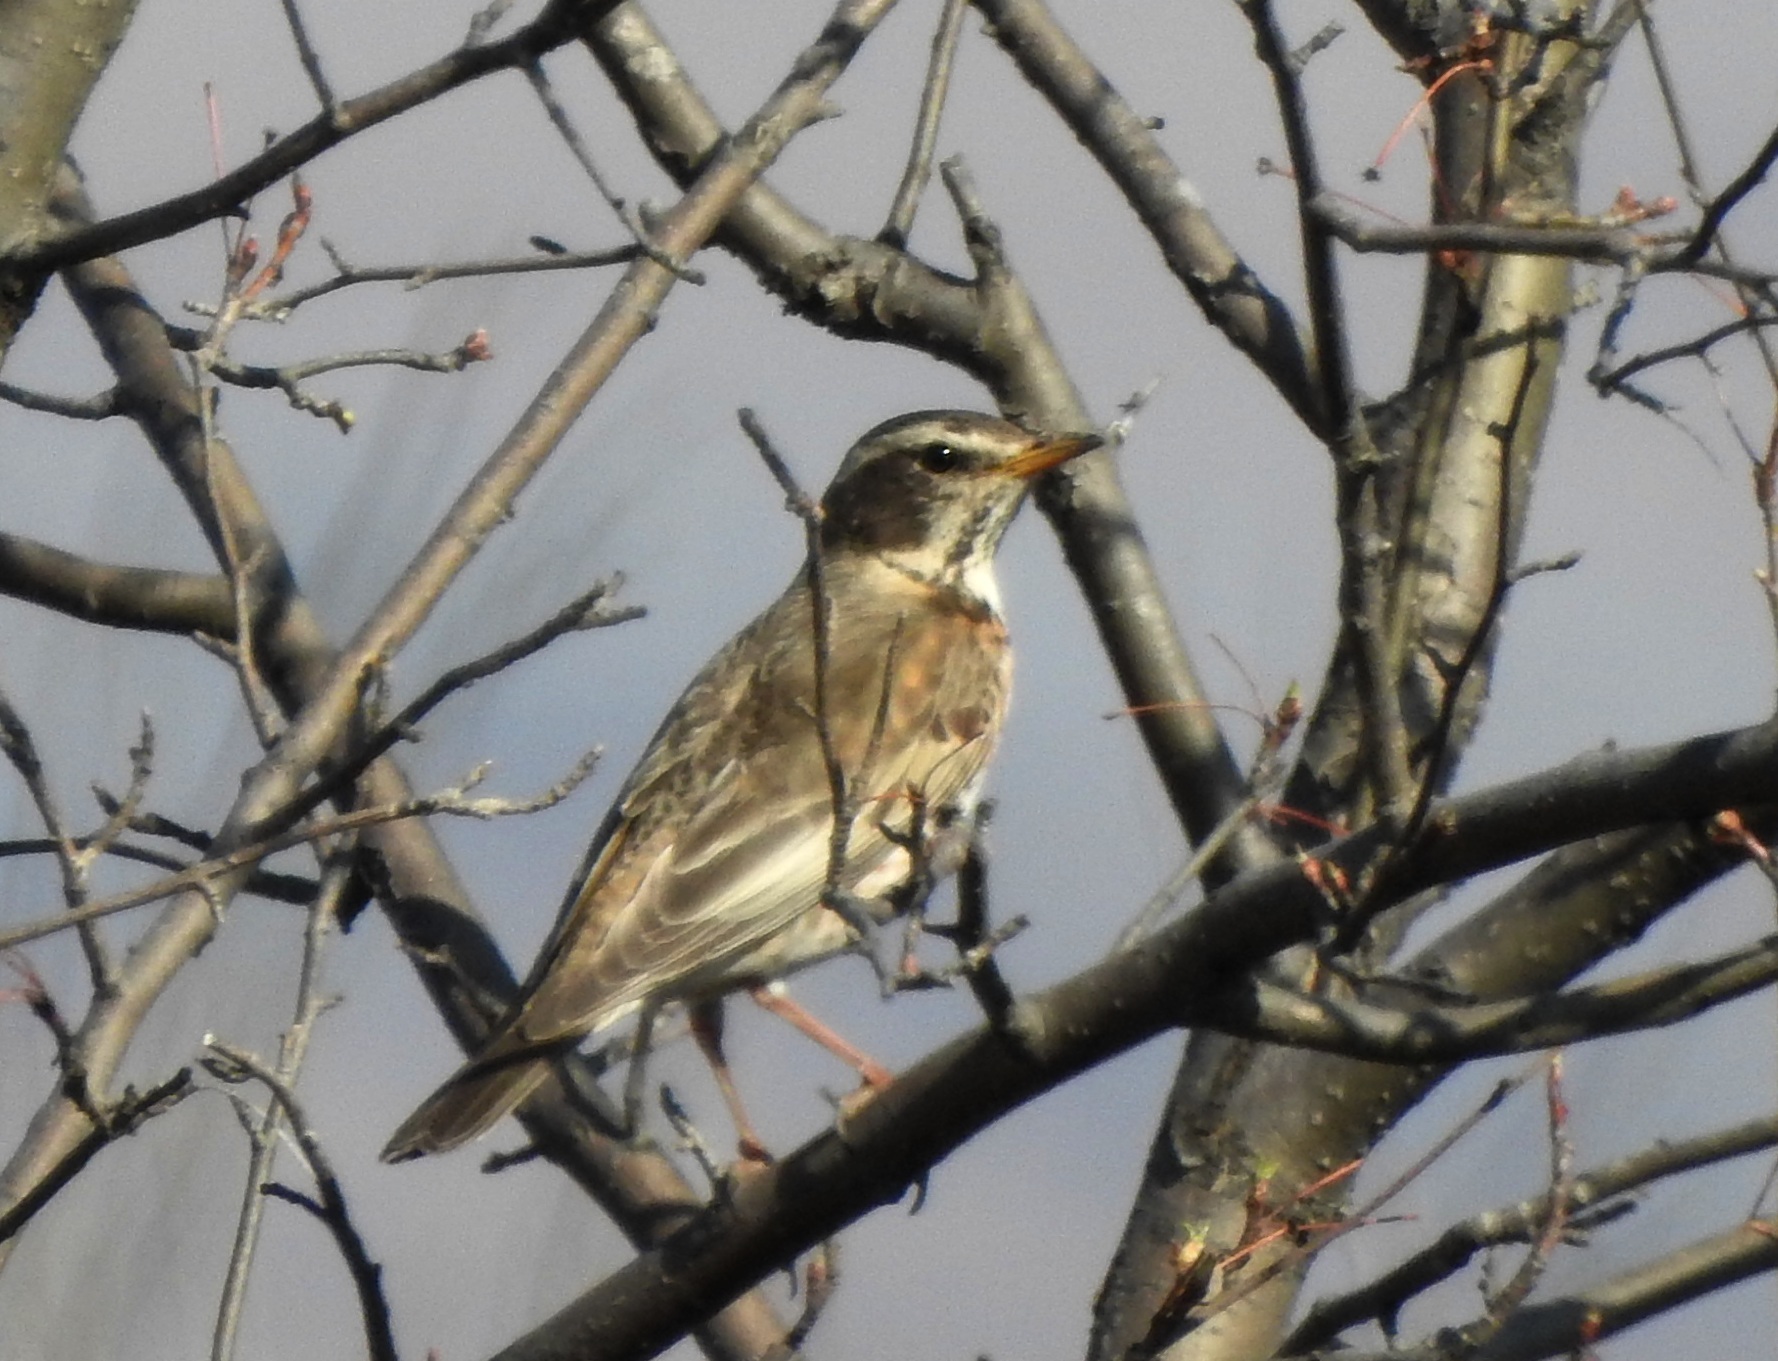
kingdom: Animalia
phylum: Chordata
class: Aves
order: Passeriformes
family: Turdidae
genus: Turdus
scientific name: Turdus eunomus
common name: Dusky thrush
